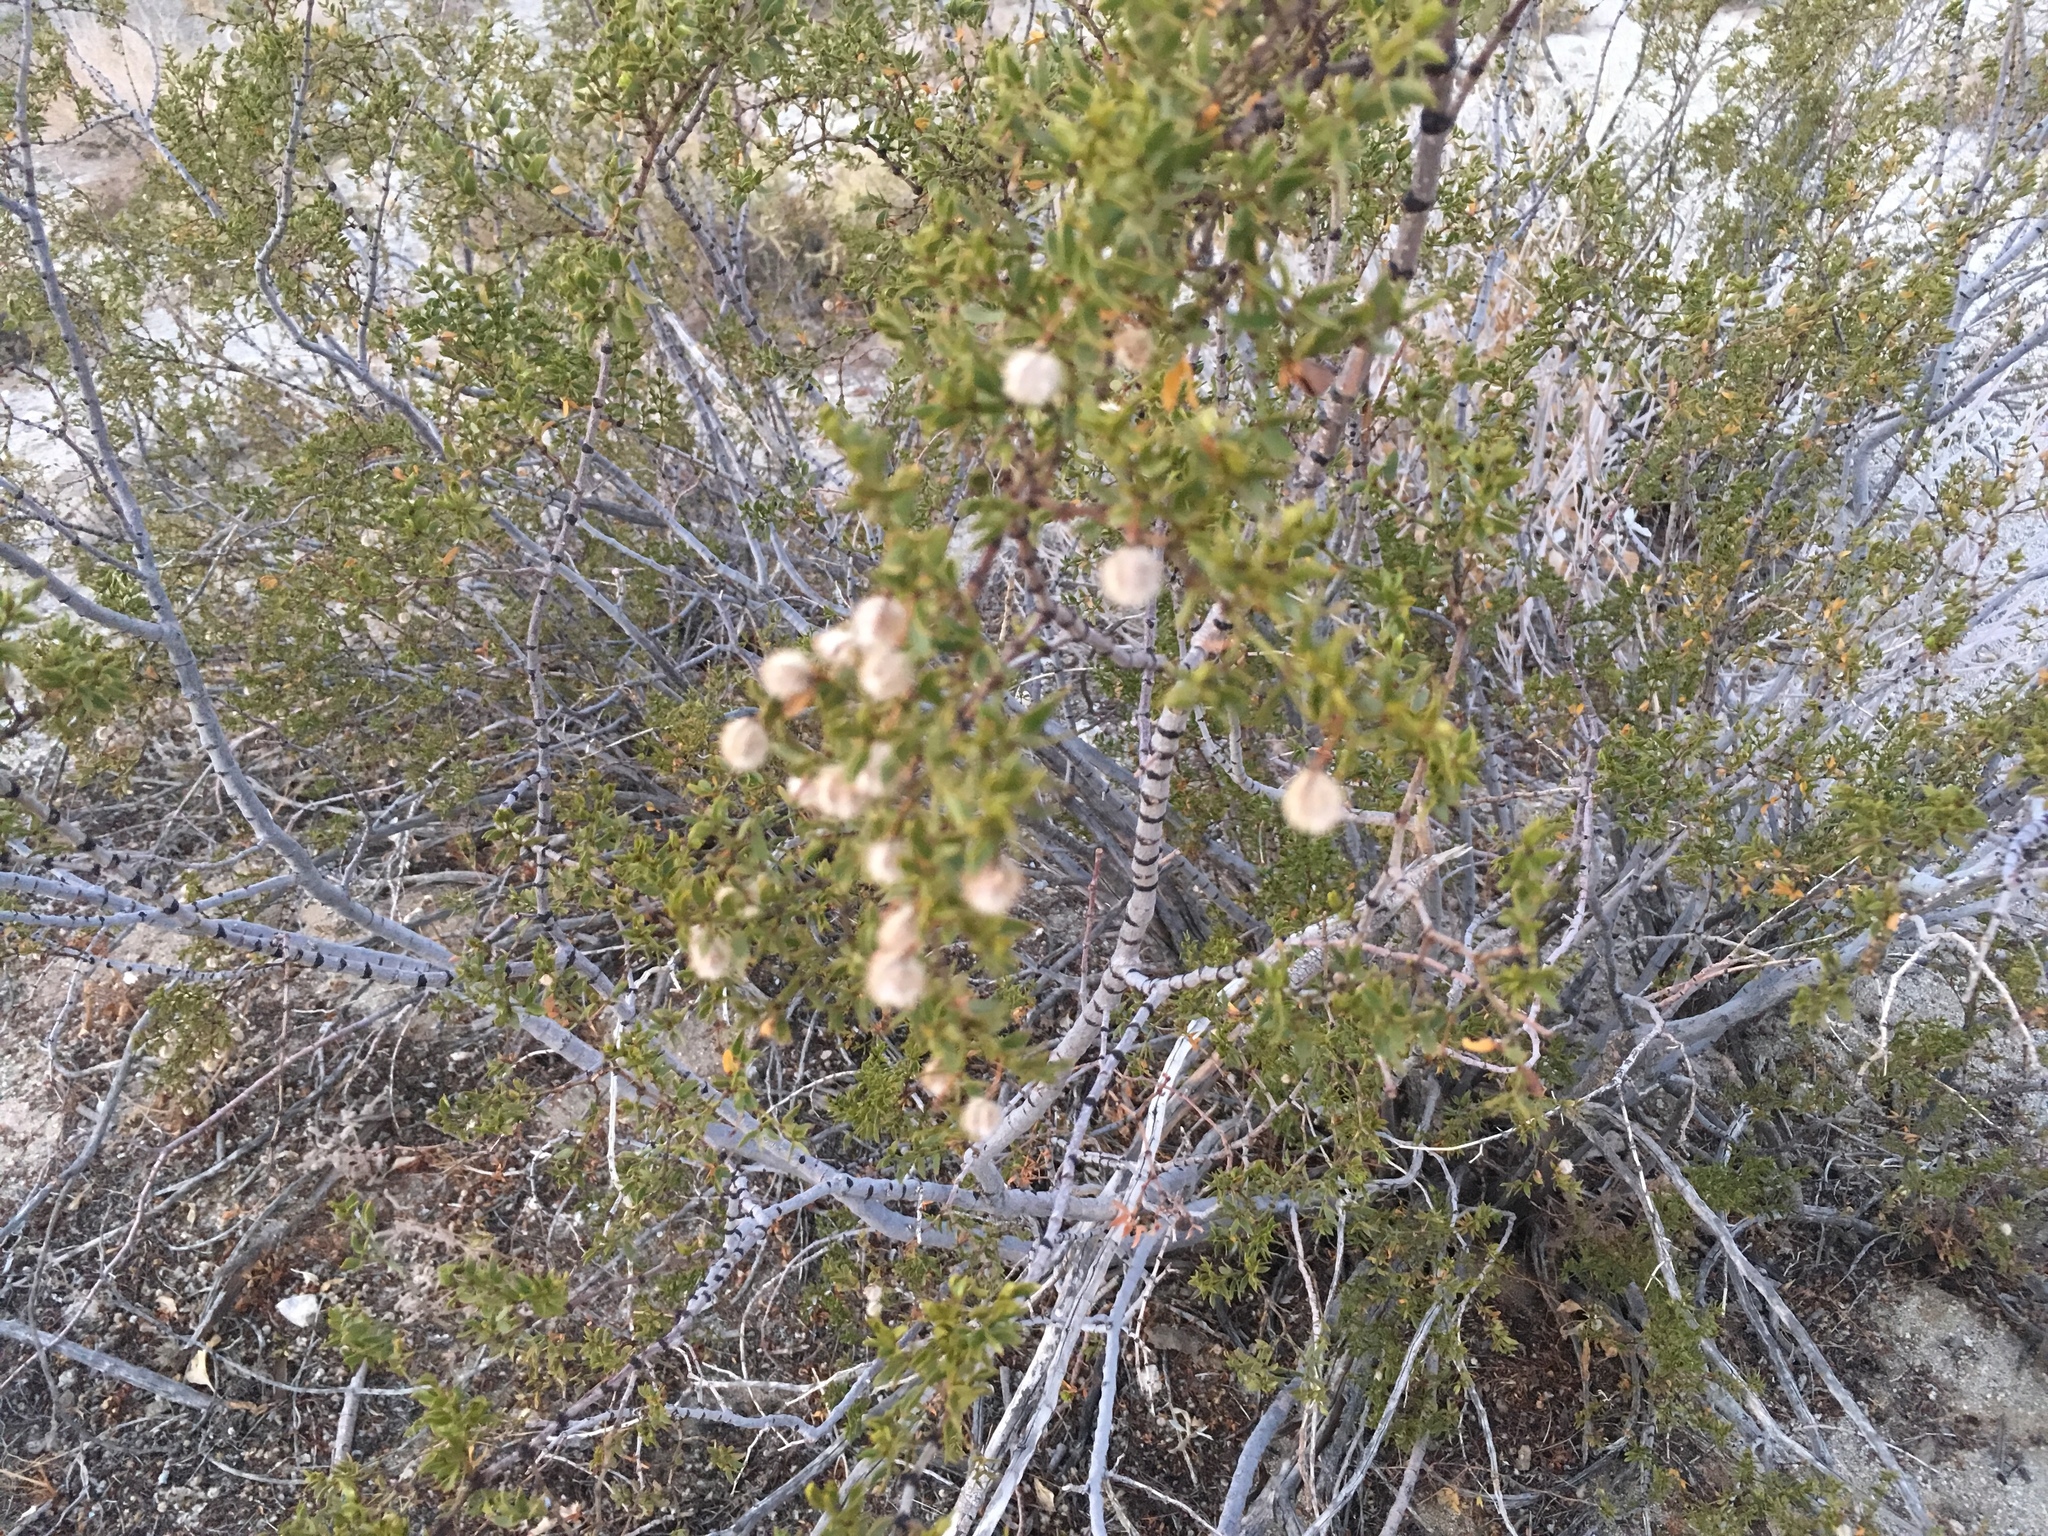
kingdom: Plantae
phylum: Tracheophyta
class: Magnoliopsida
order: Zygophyllales
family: Zygophyllaceae
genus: Larrea
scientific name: Larrea tridentata
